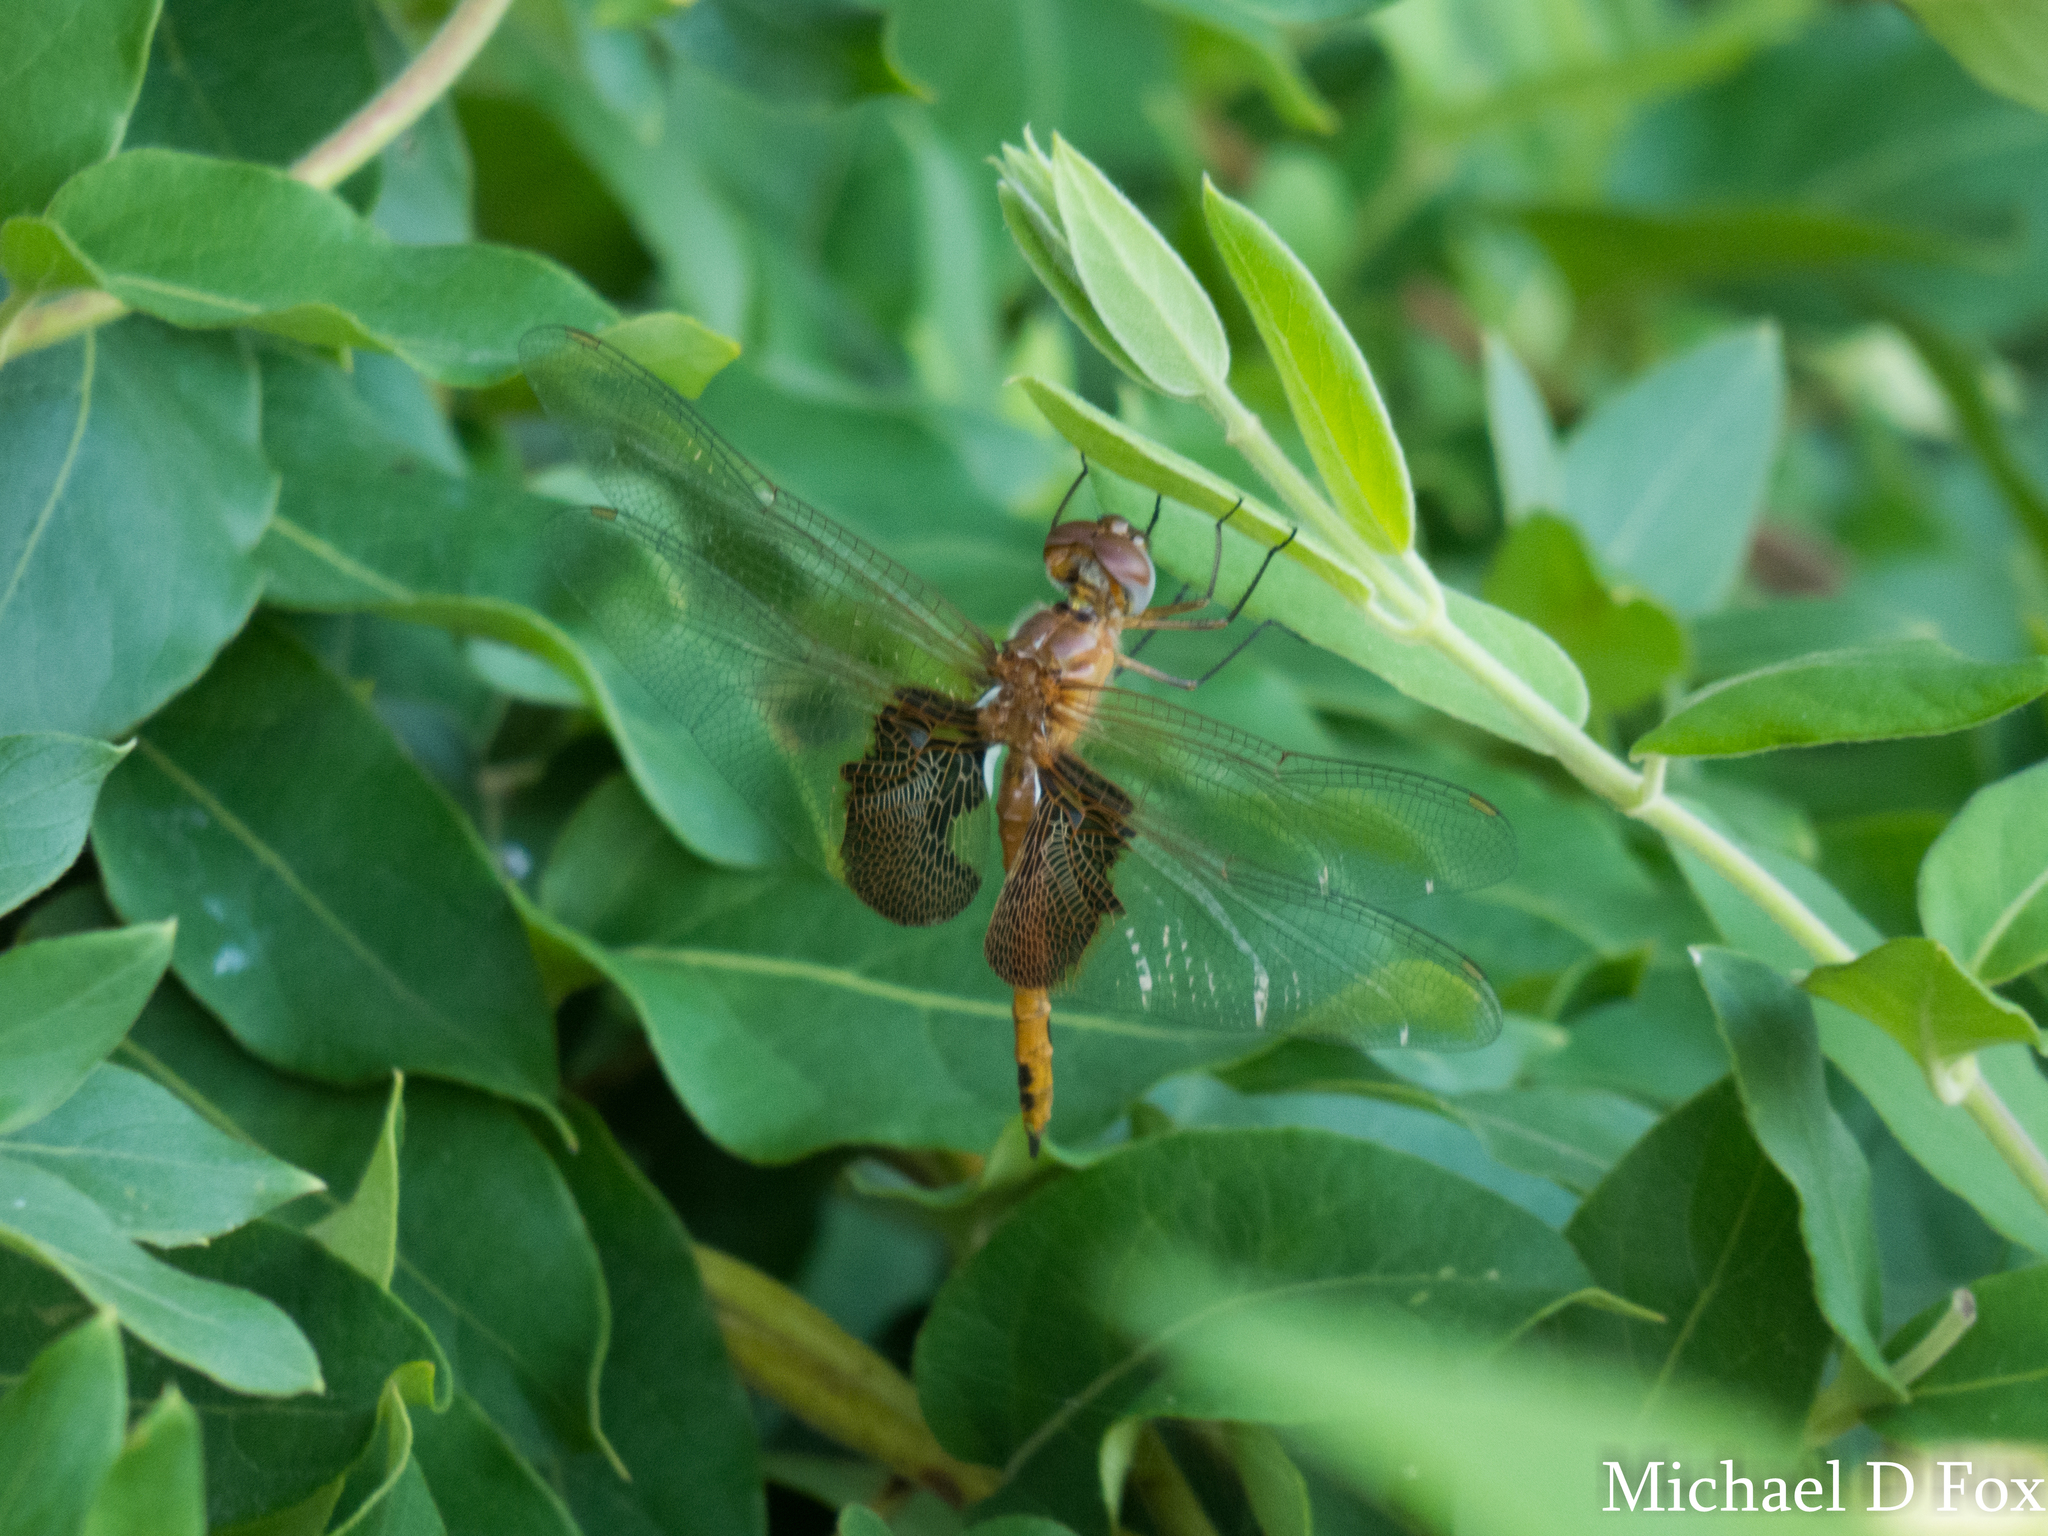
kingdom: Animalia
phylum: Arthropoda
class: Insecta
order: Odonata
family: Libellulidae
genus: Tramea
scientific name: Tramea onusta
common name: Red saddlebags
